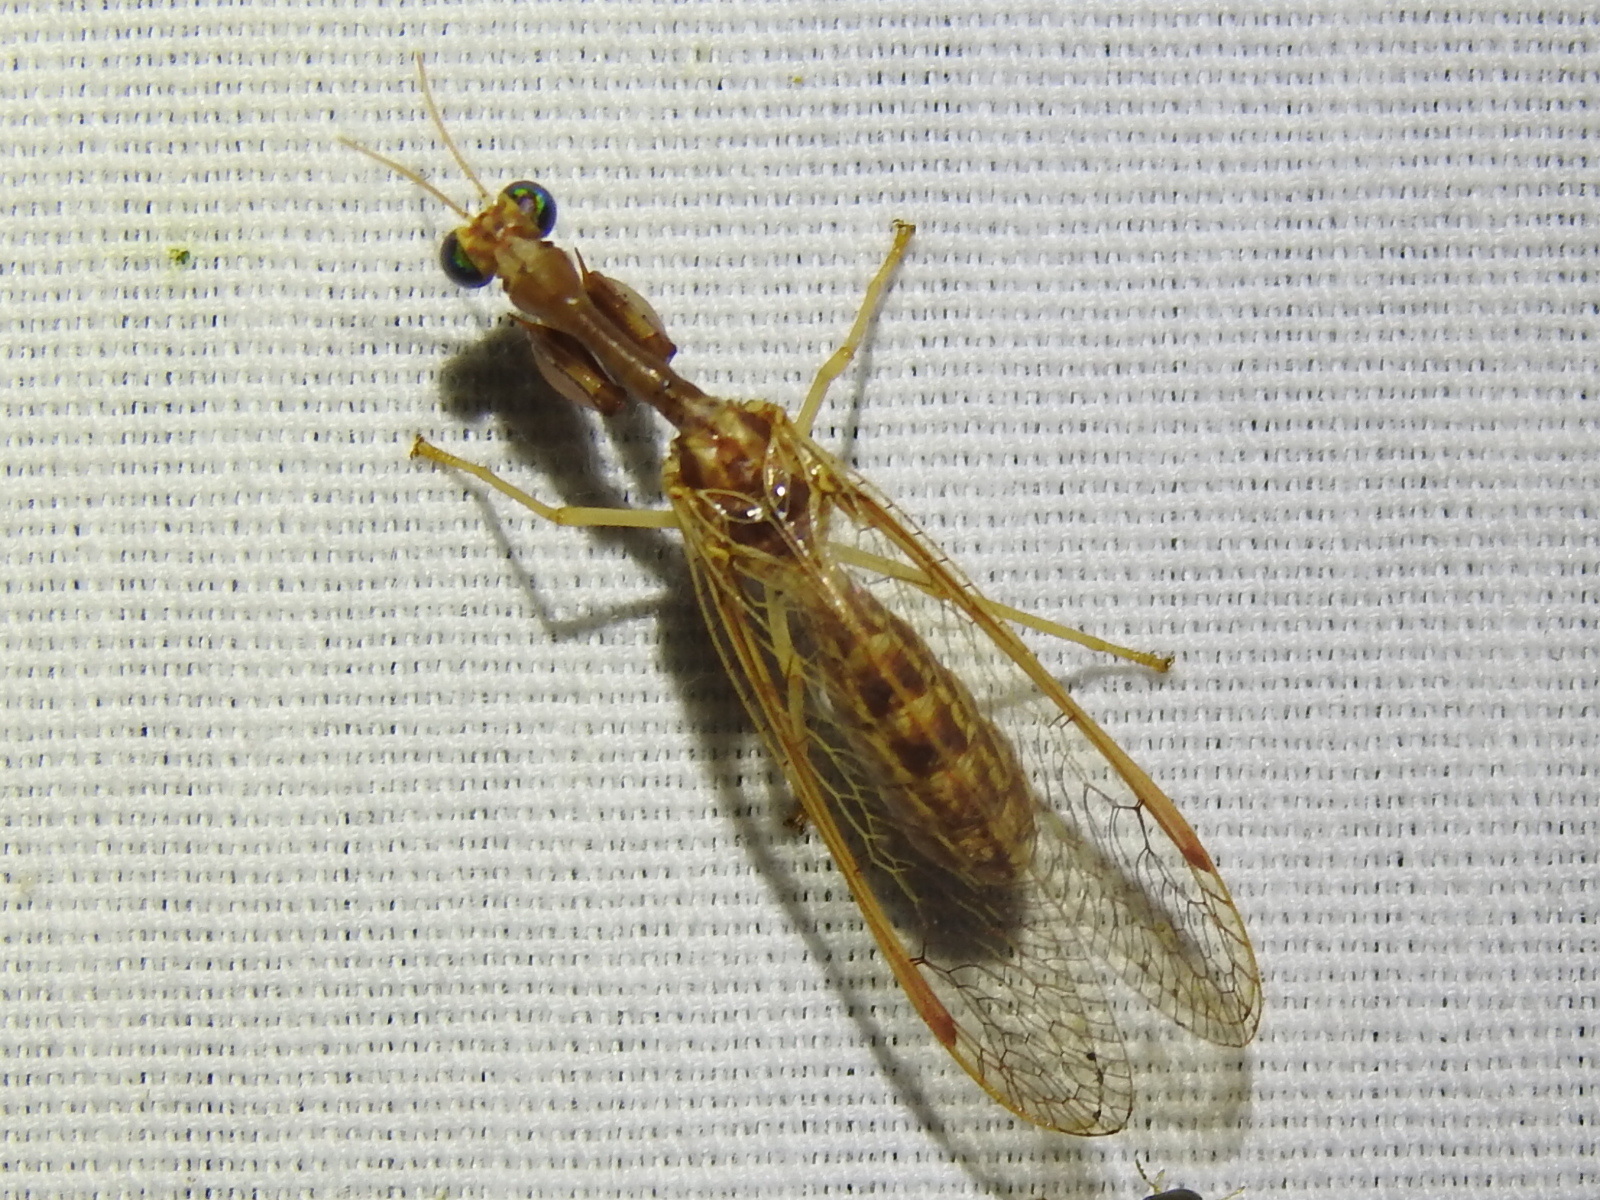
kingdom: Animalia
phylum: Arthropoda
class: Insecta
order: Neuroptera
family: Mantispidae
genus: Dicromantispa
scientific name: Dicromantispa sayi
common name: Say's mantidfly
